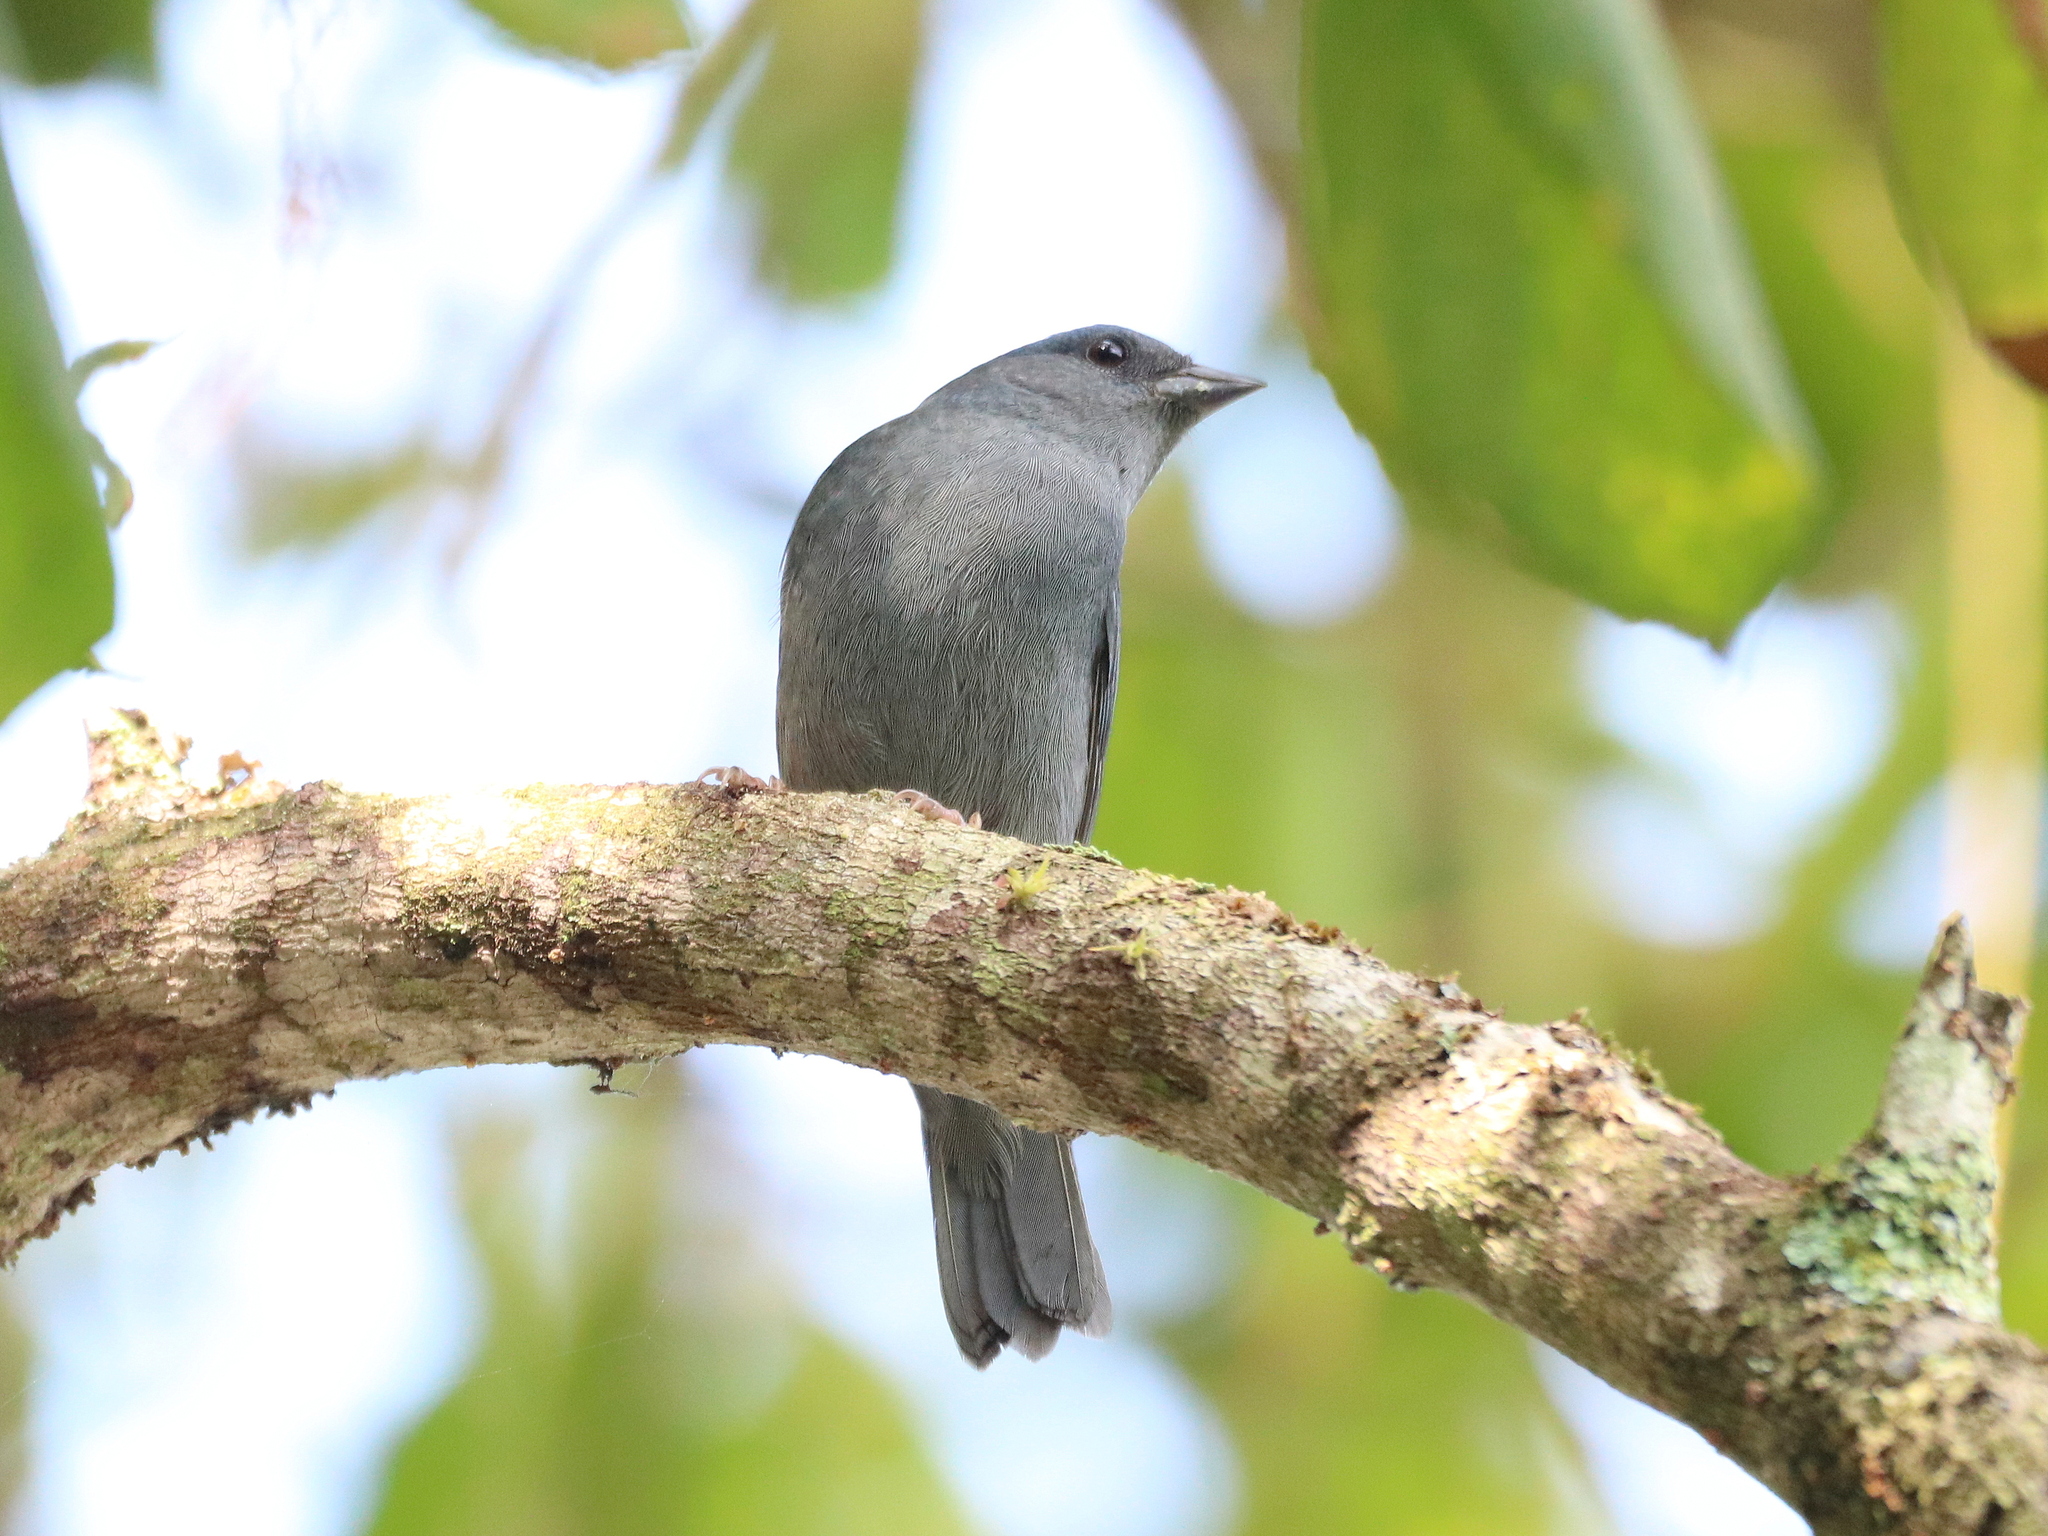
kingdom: Animalia
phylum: Chordata
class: Aves
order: Passeriformes
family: Thraupidae
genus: Haplospiza
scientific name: Haplospiza unicolor
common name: Uniform finch
